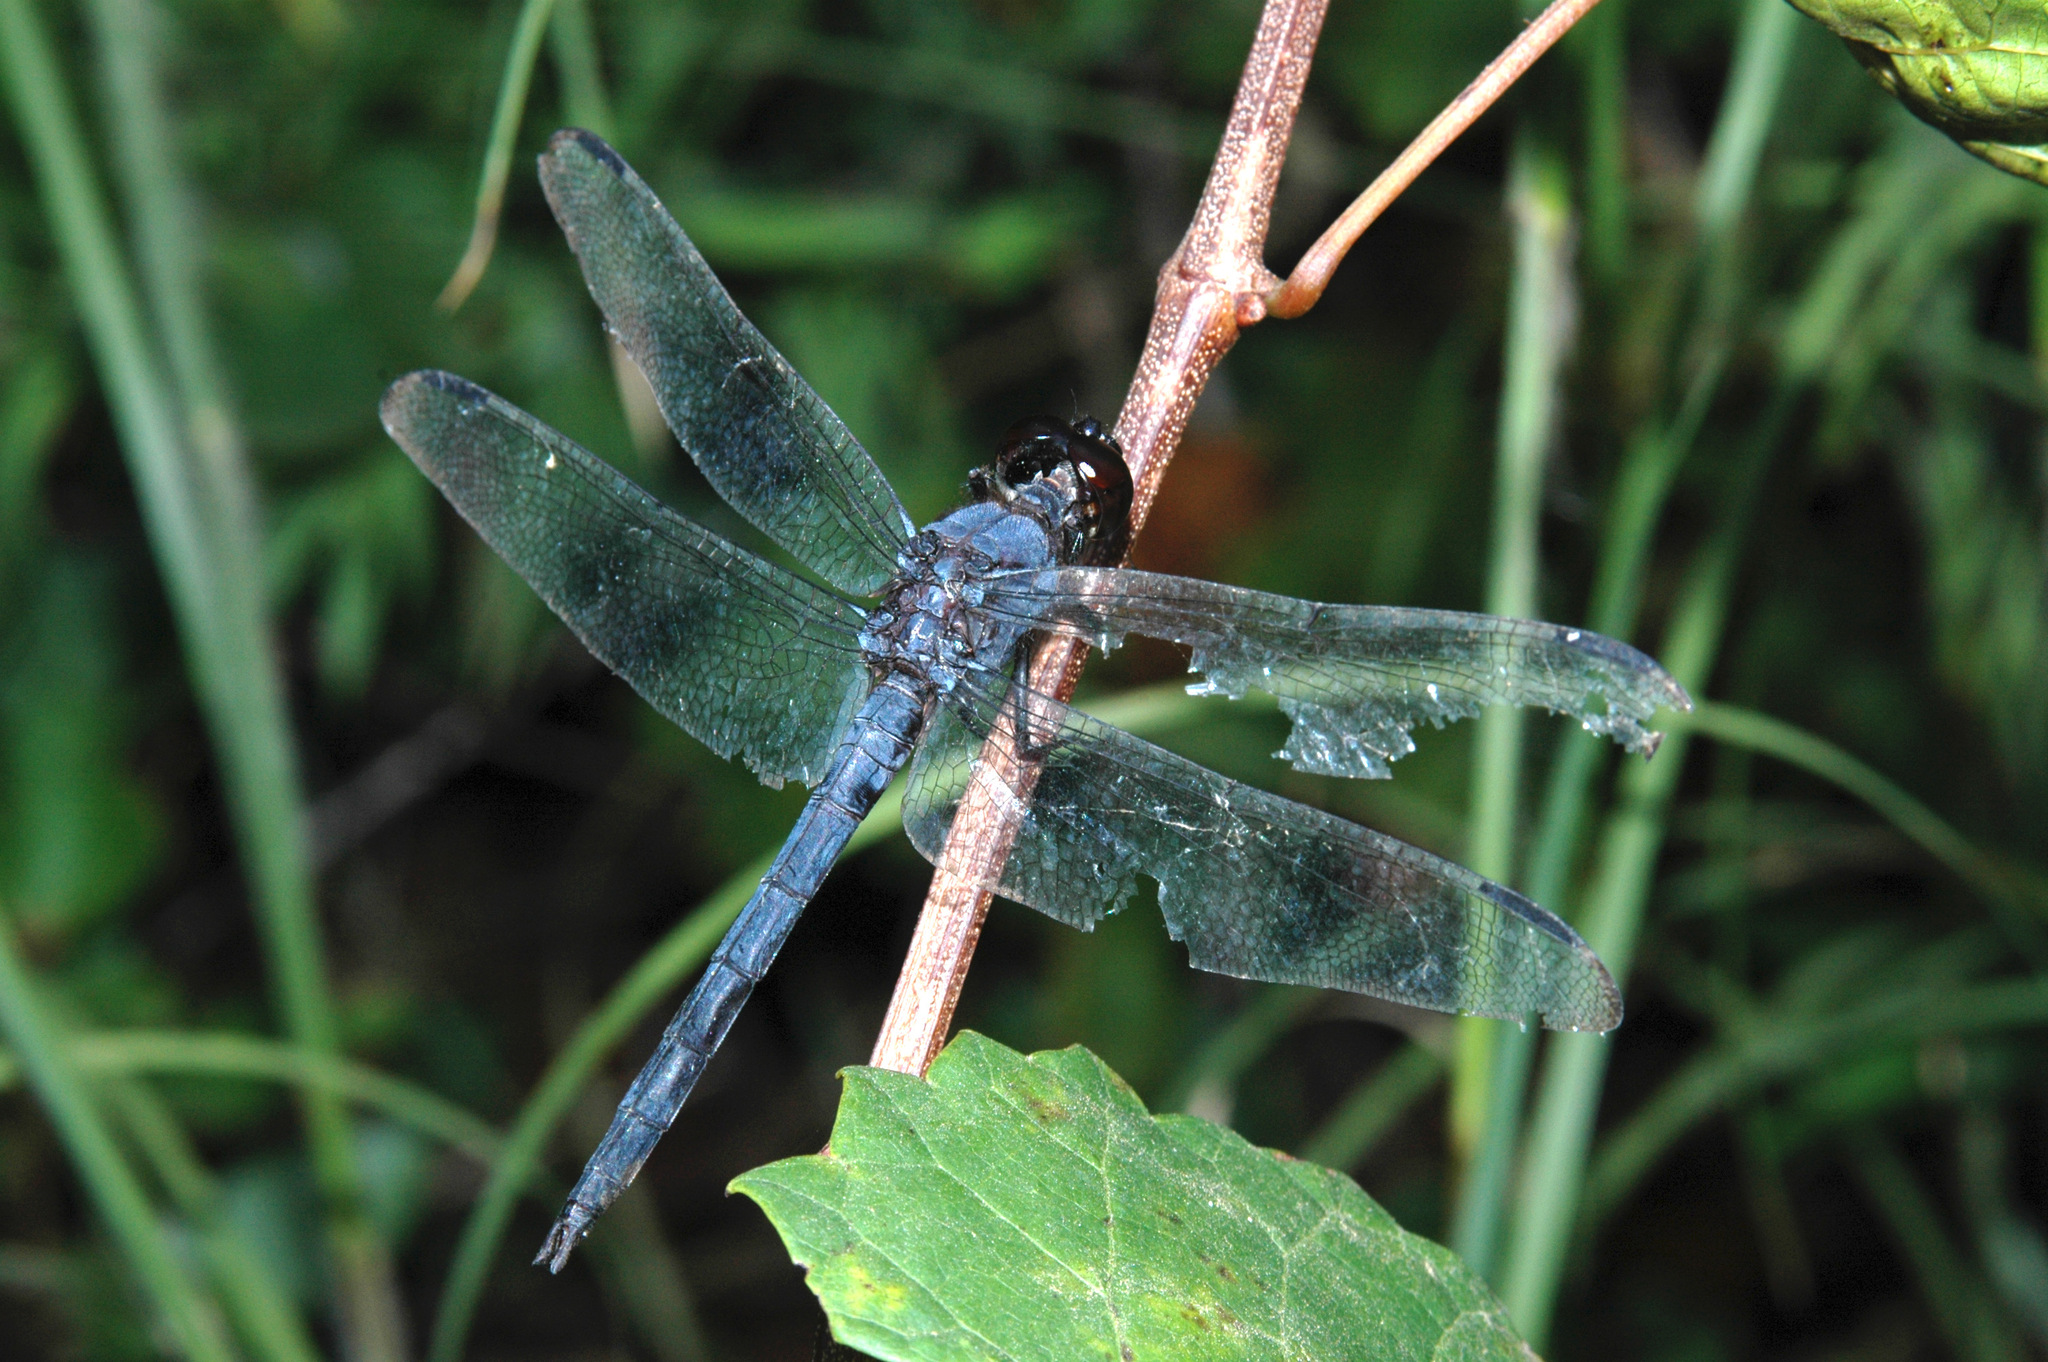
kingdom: Animalia
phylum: Arthropoda
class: Insecta
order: Odonata
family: Libellulidae
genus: Libellula
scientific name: Libellula incesta
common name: Slaty skimmer
